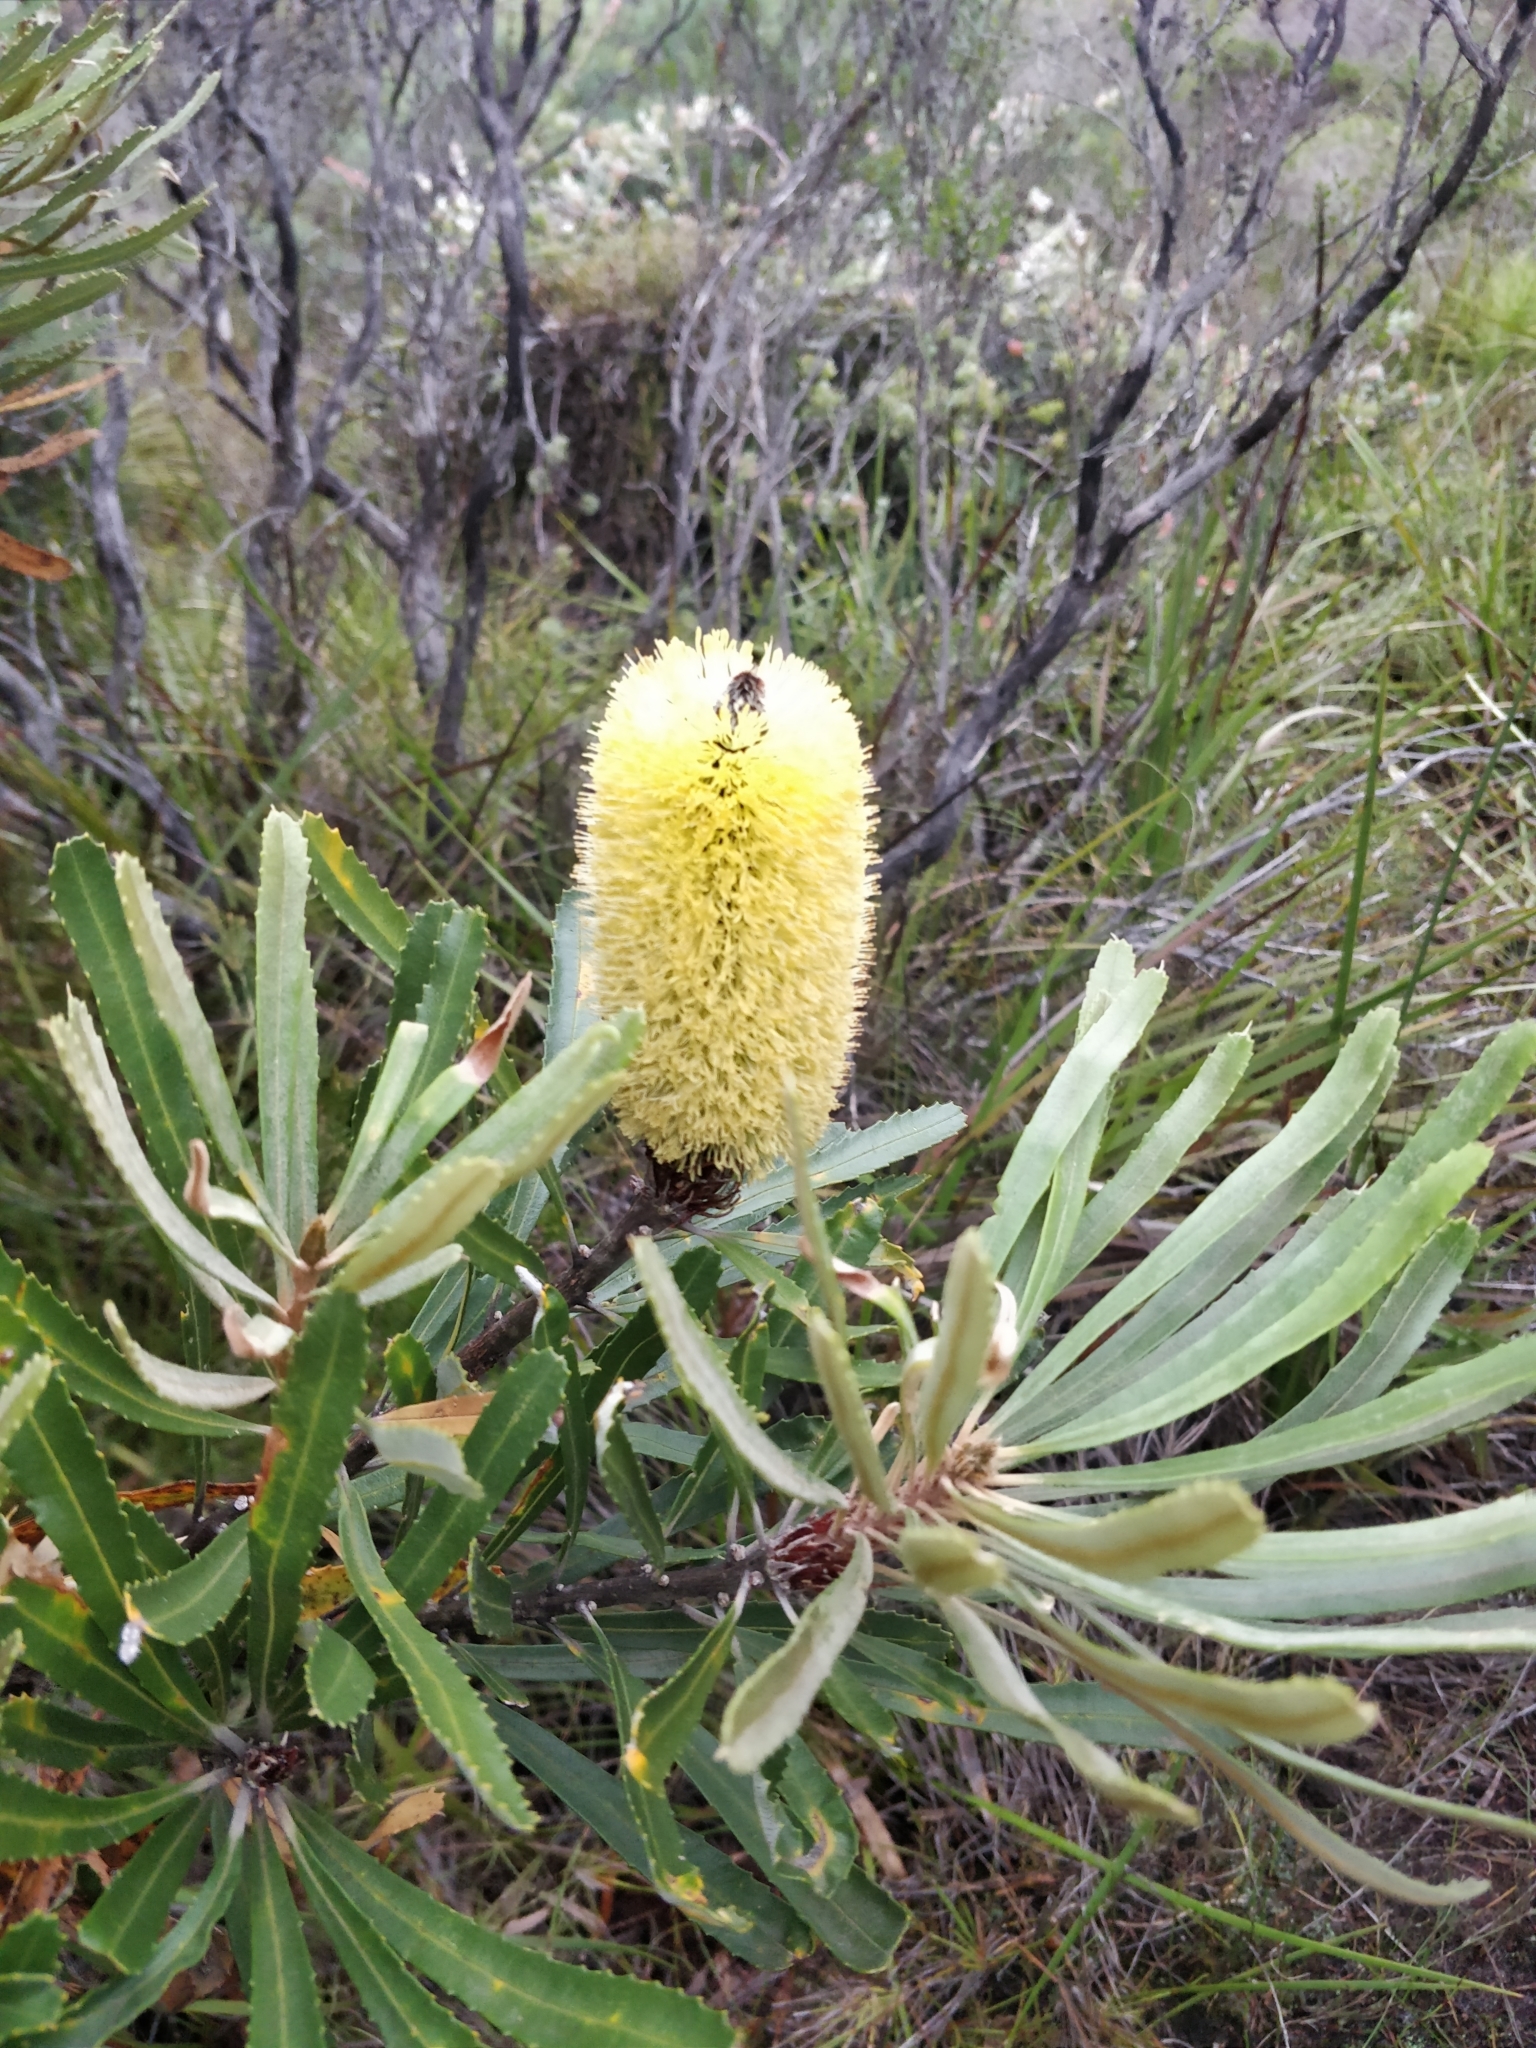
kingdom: Plantae
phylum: Tracheophyta
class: Magnoliopsida
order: Proteales
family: Proteaceae
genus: Banksia
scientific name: Banksia attenuata
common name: Coast banksia
